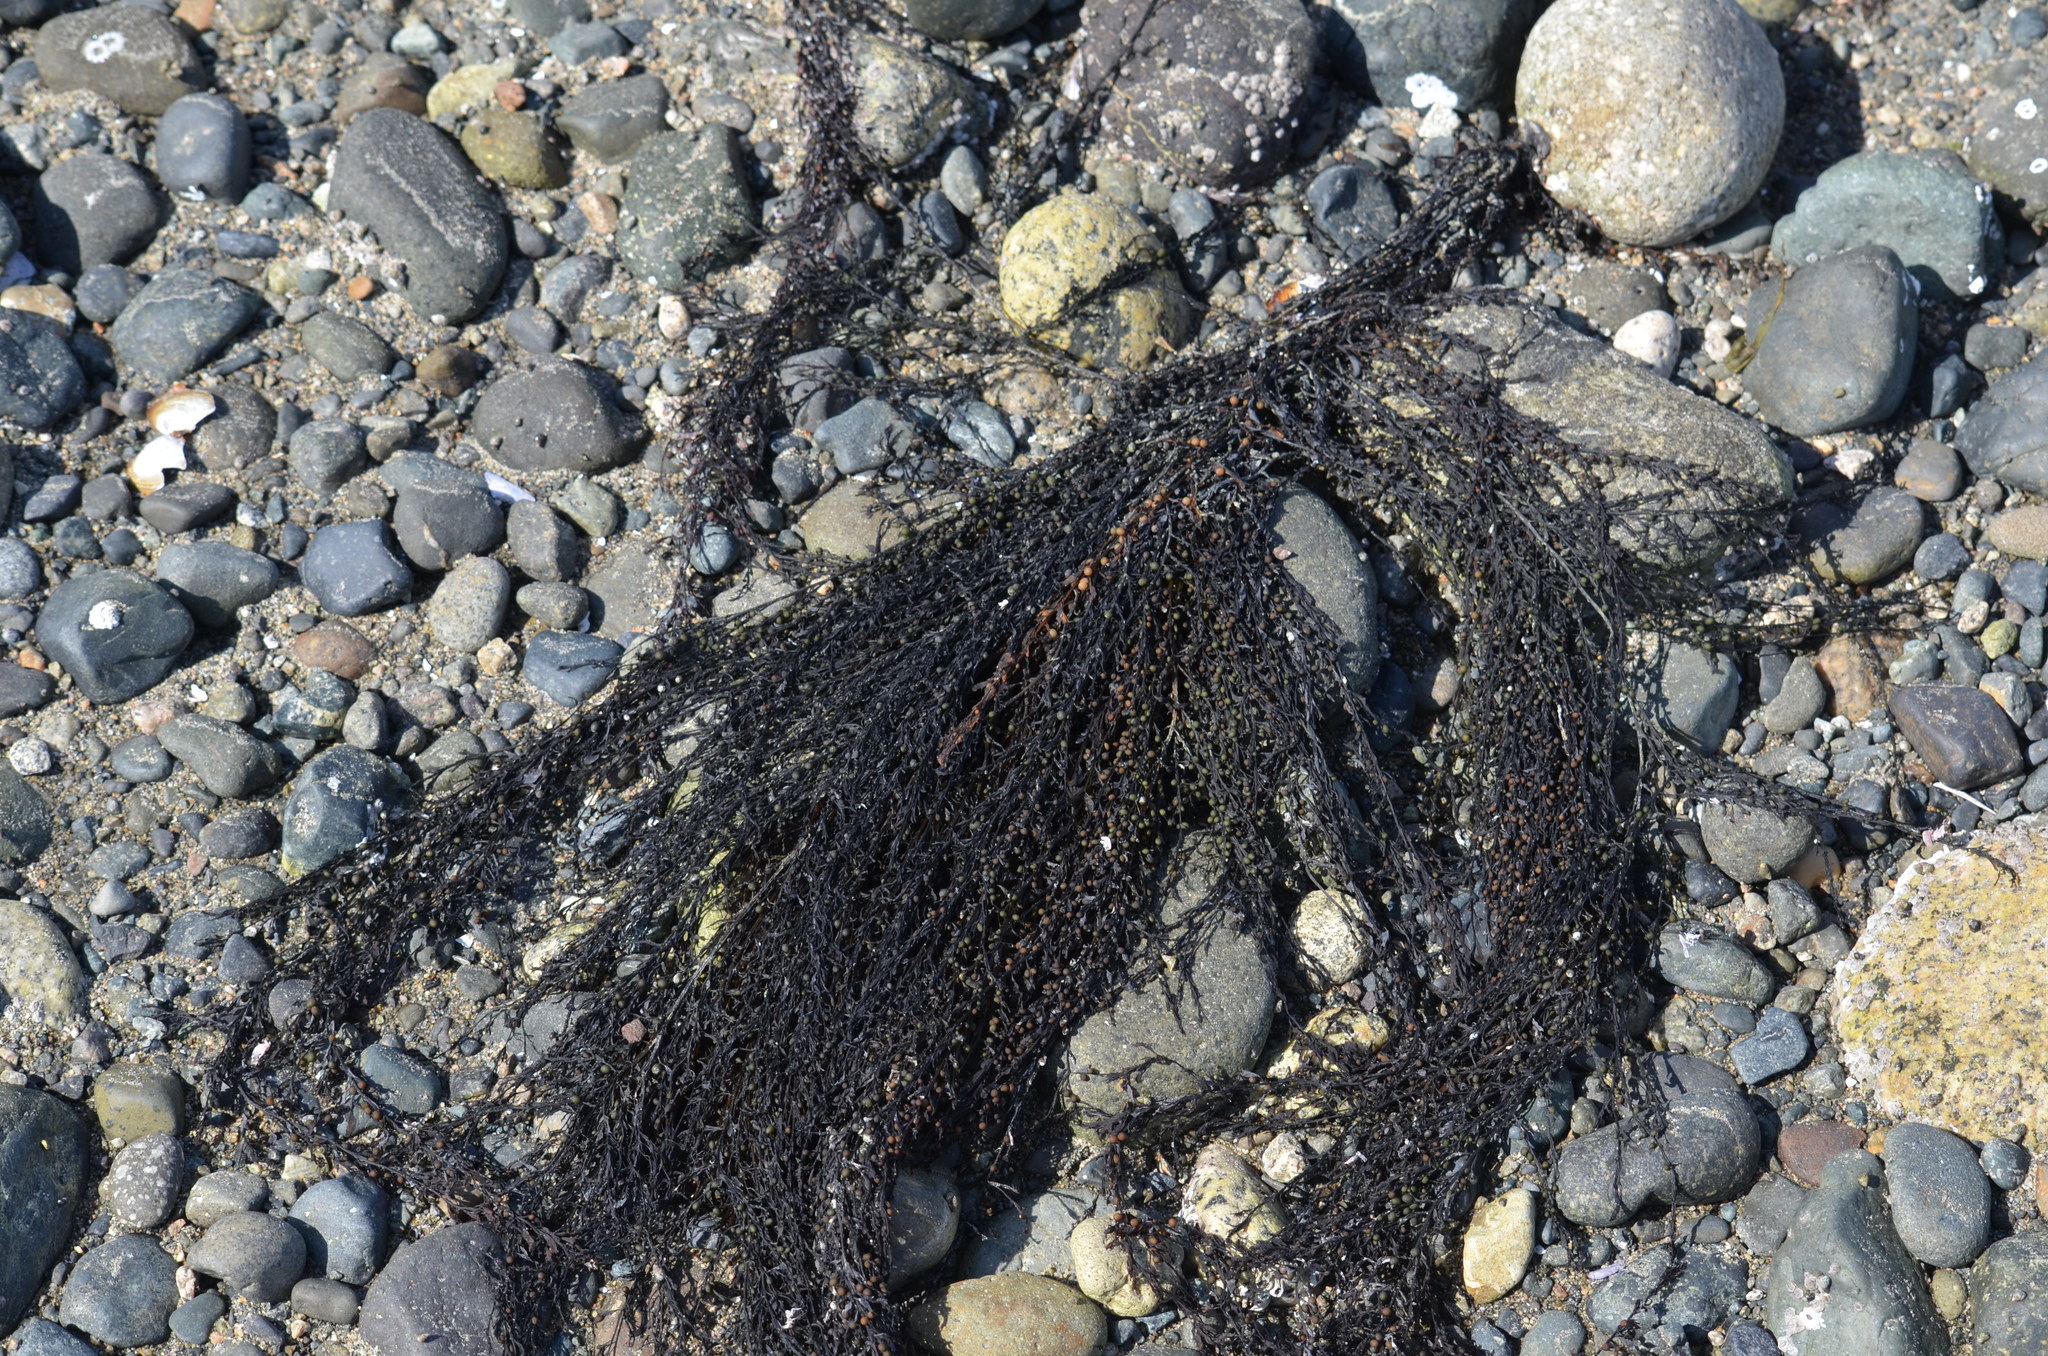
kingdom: Chromista
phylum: Ochrophyta
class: Phaeophyceae
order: Fucales
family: Sargassaceae
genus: Sargassum
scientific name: Sargassum muticum
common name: Japweed
